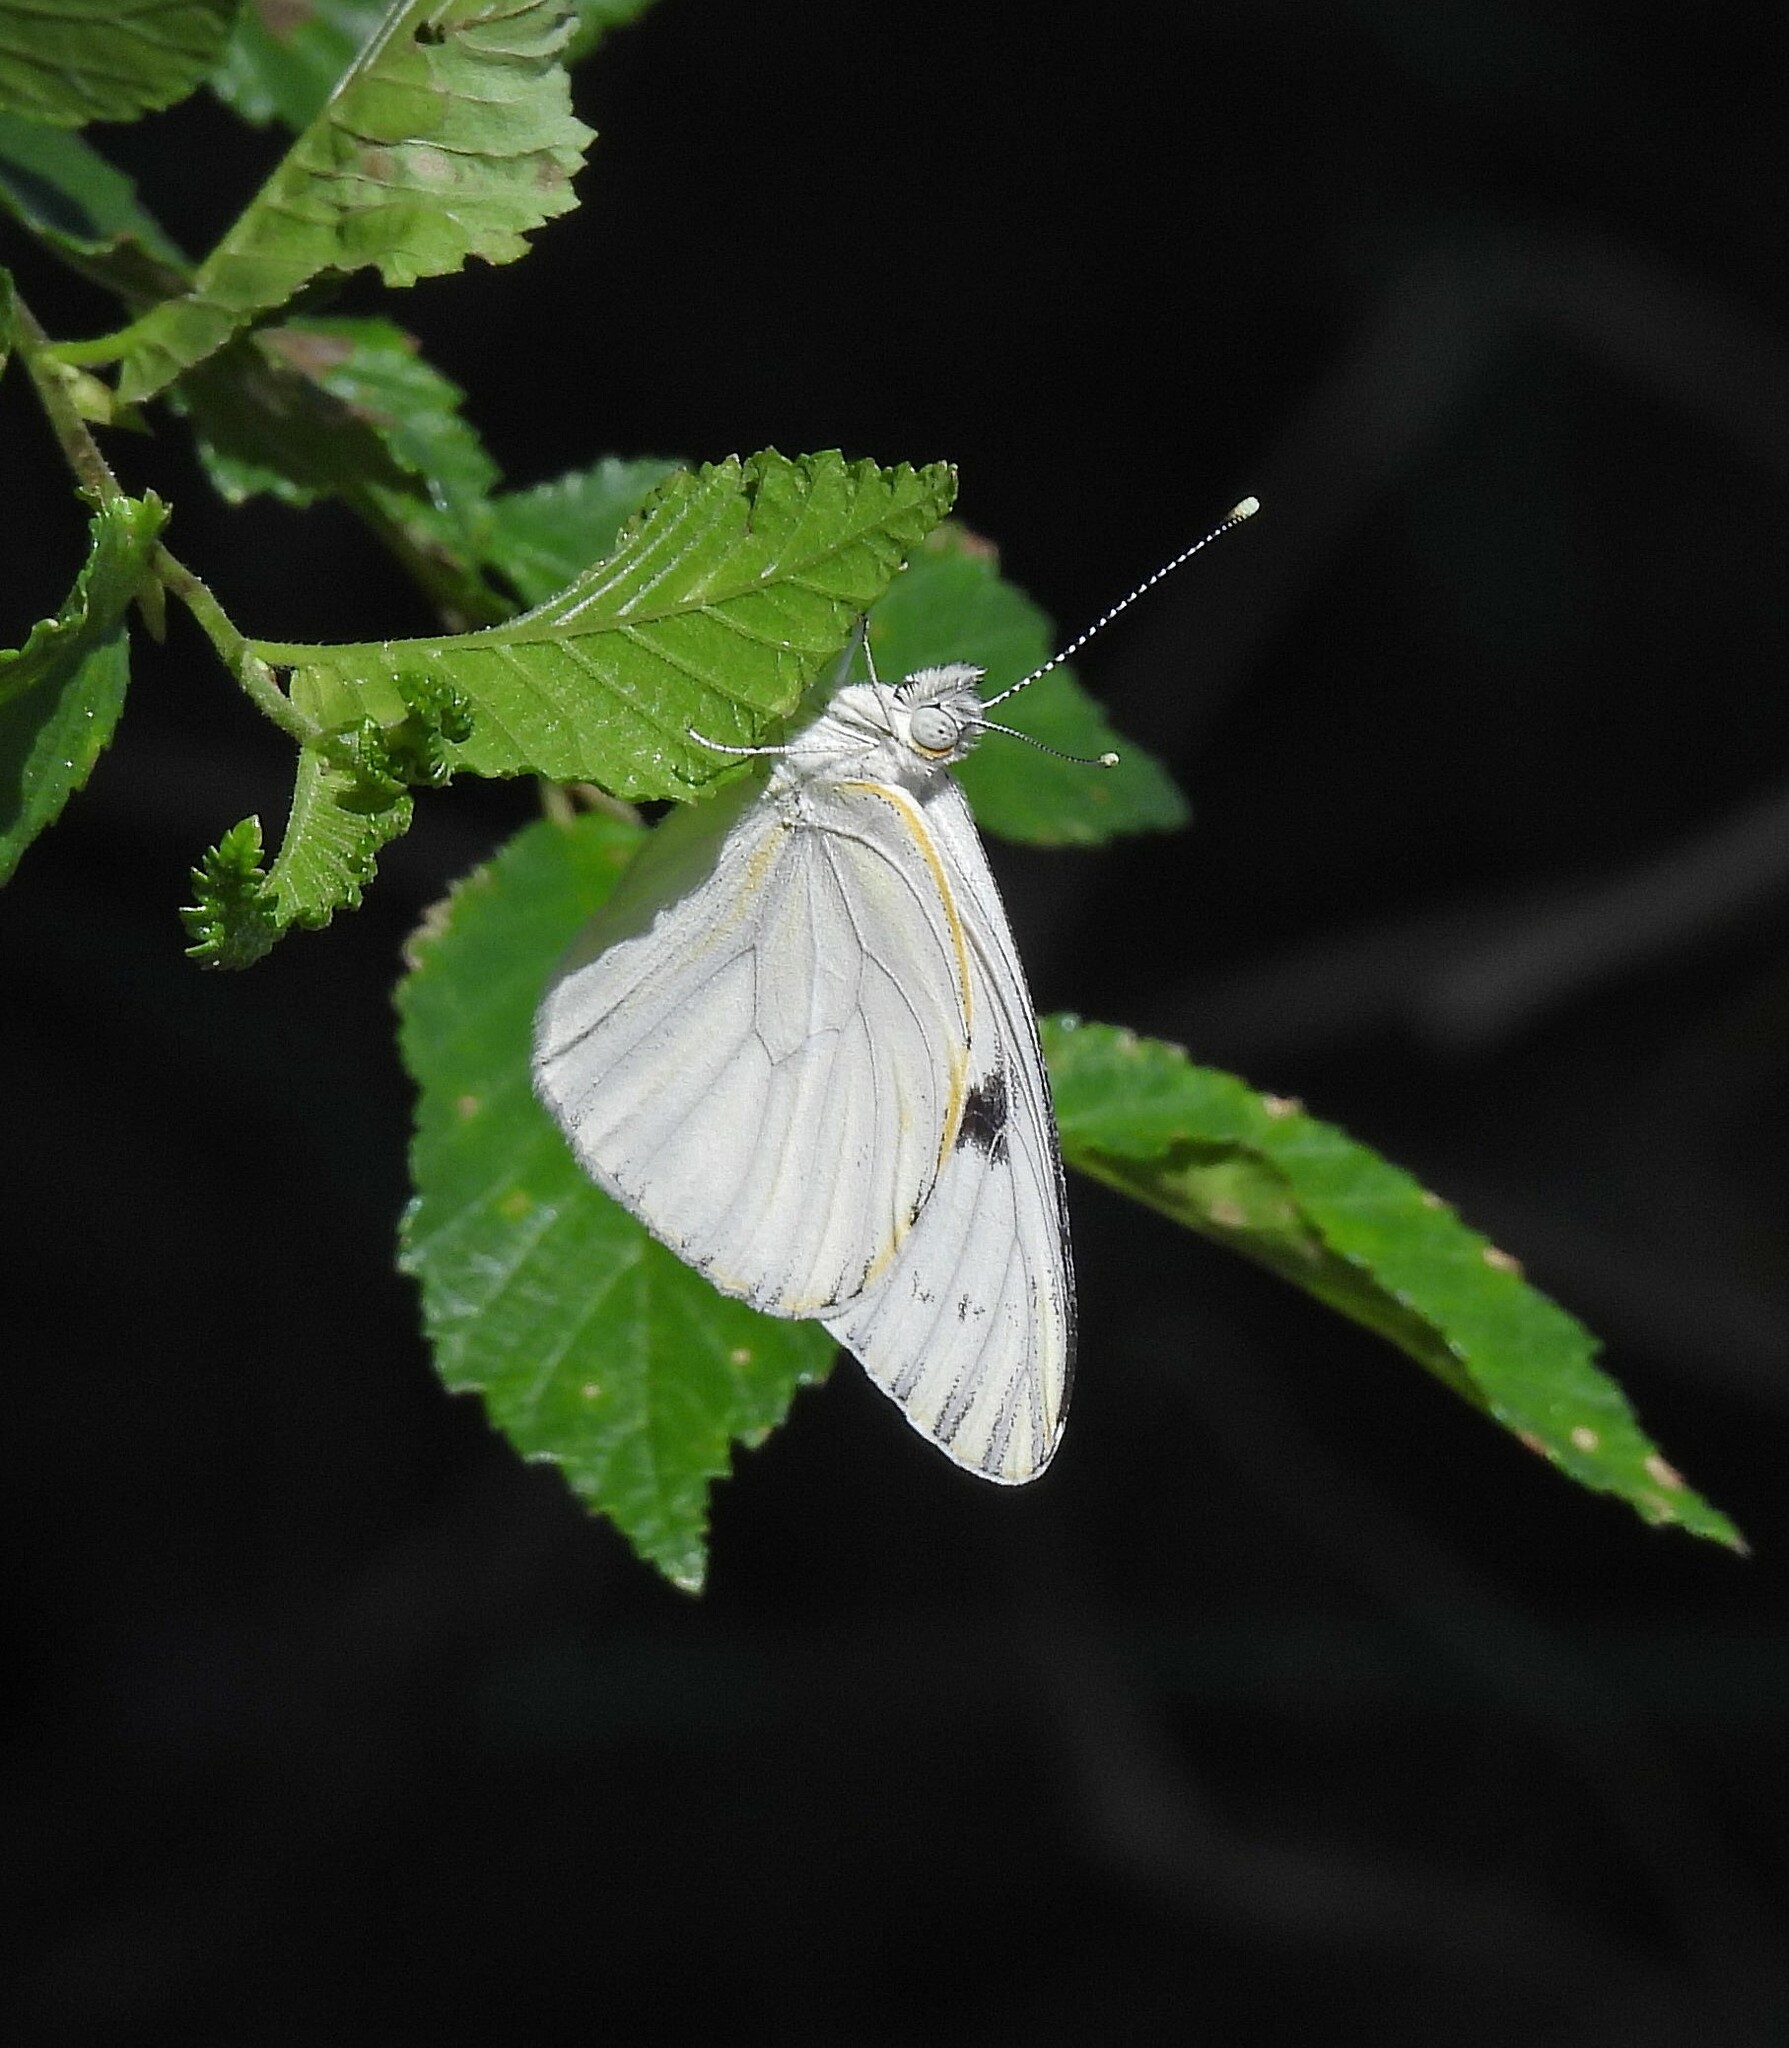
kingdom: Animalia
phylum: Arthropoda
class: Insecta
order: Lepidoptera
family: Pieridae
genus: Tatochila
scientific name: Tatochila mercedis
